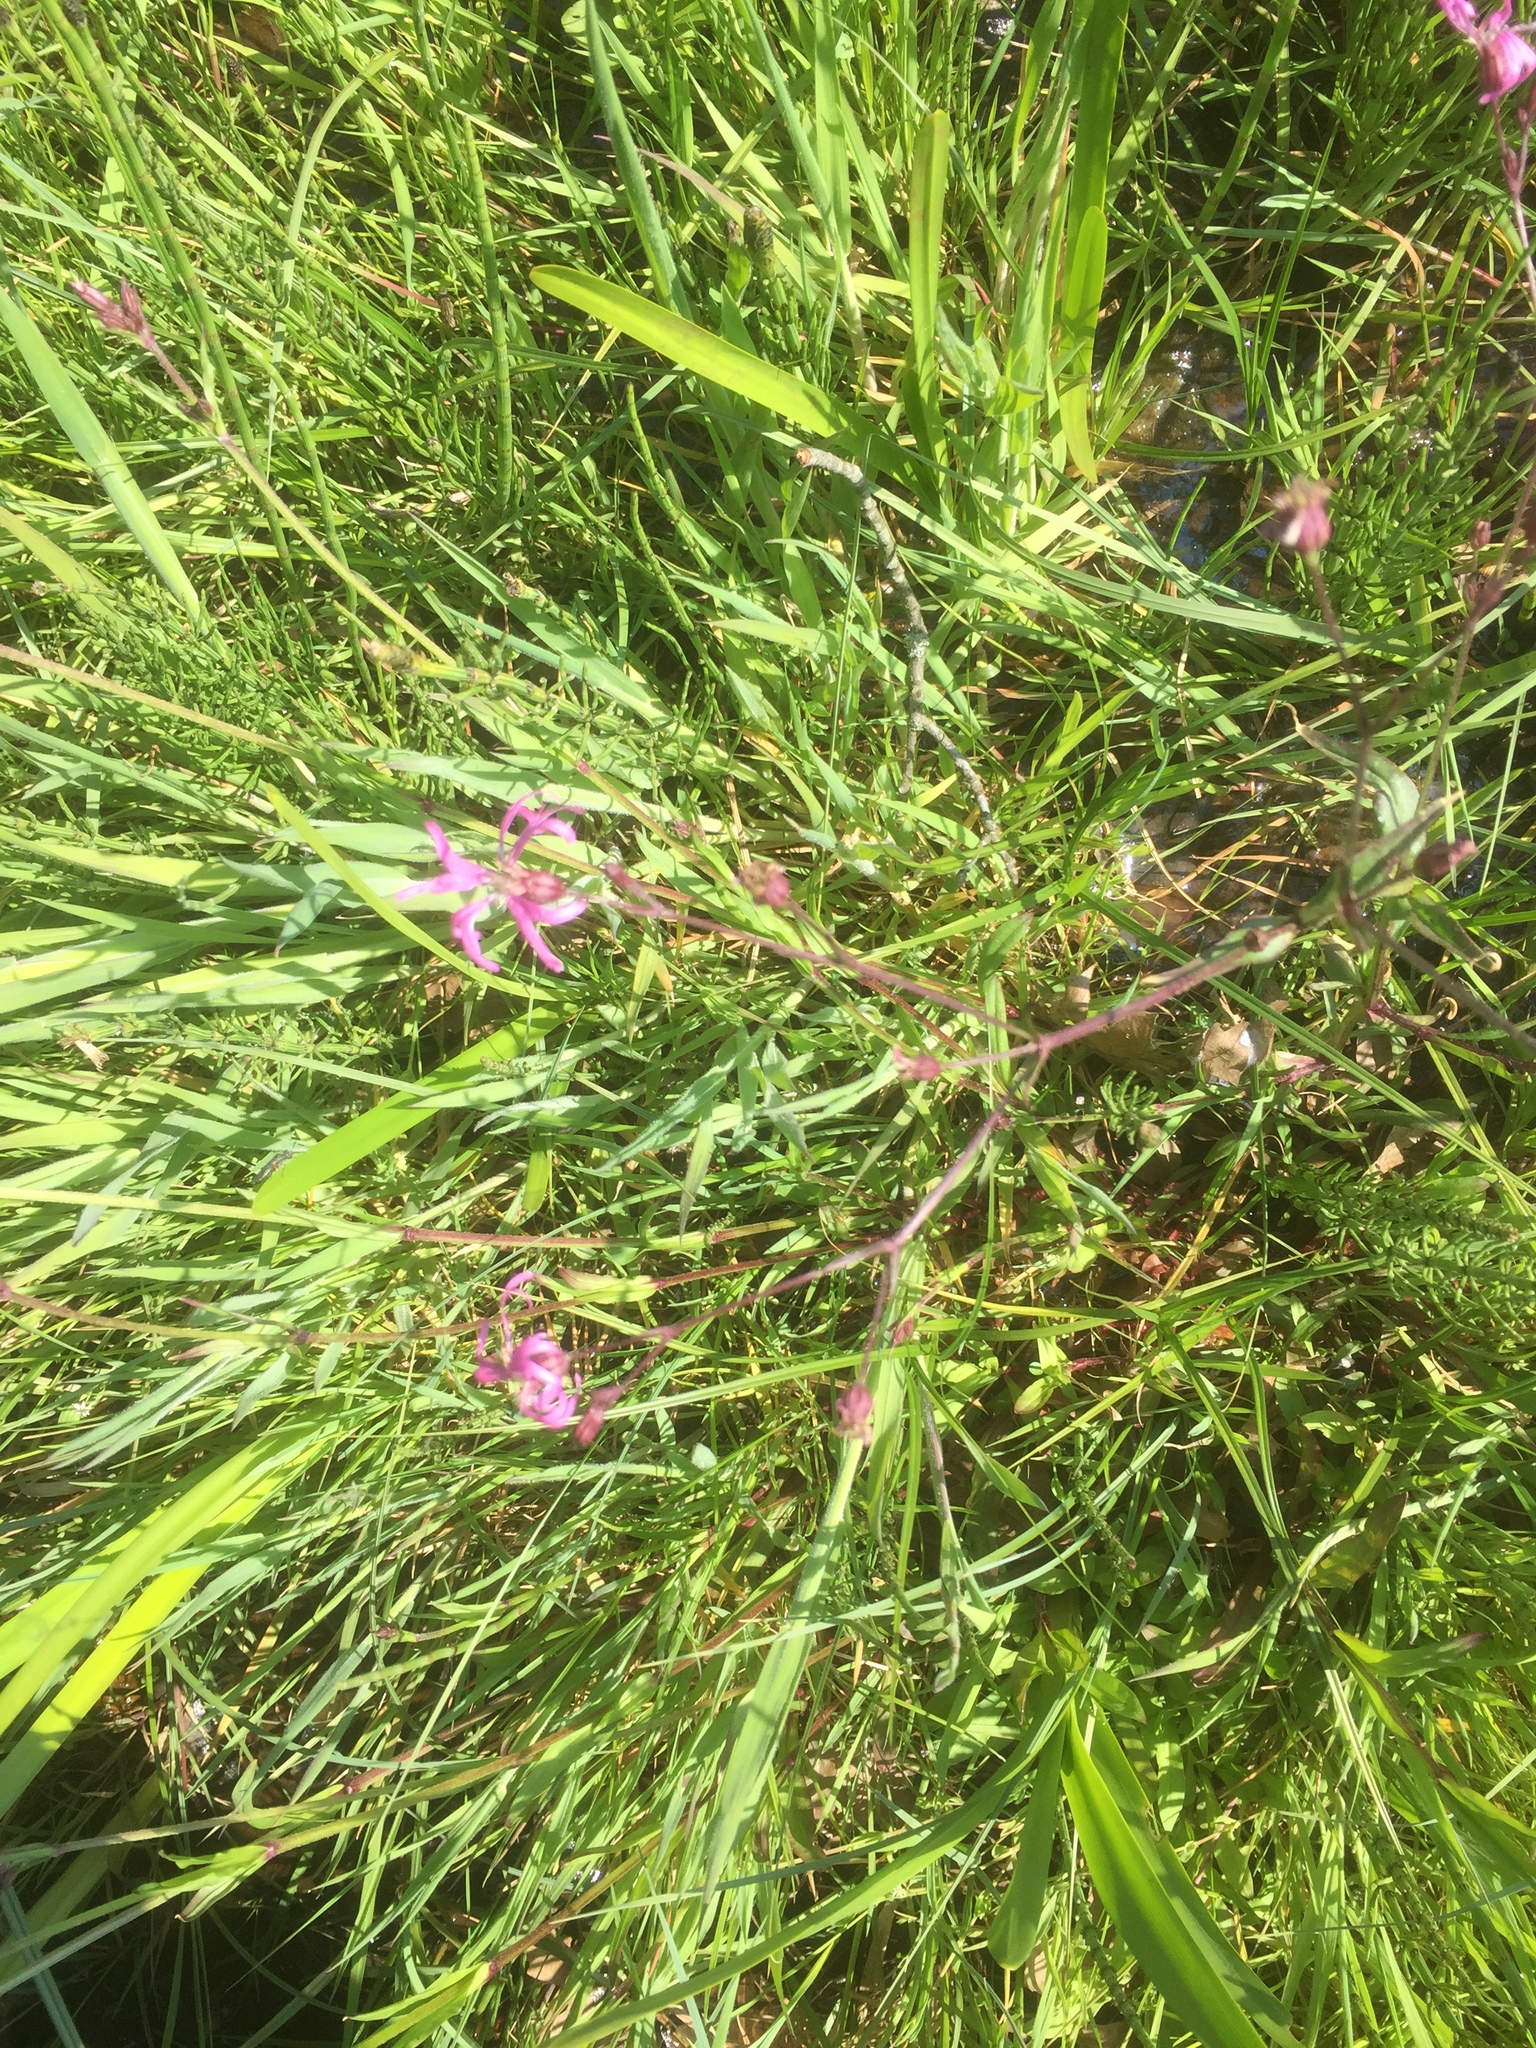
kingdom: Plantae
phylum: Tracheophyta
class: Magnoliopsida
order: Caryophyllales
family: Caryophyllaceae
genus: Silene
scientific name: Silene flos-cuculi
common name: Ragged-robin
